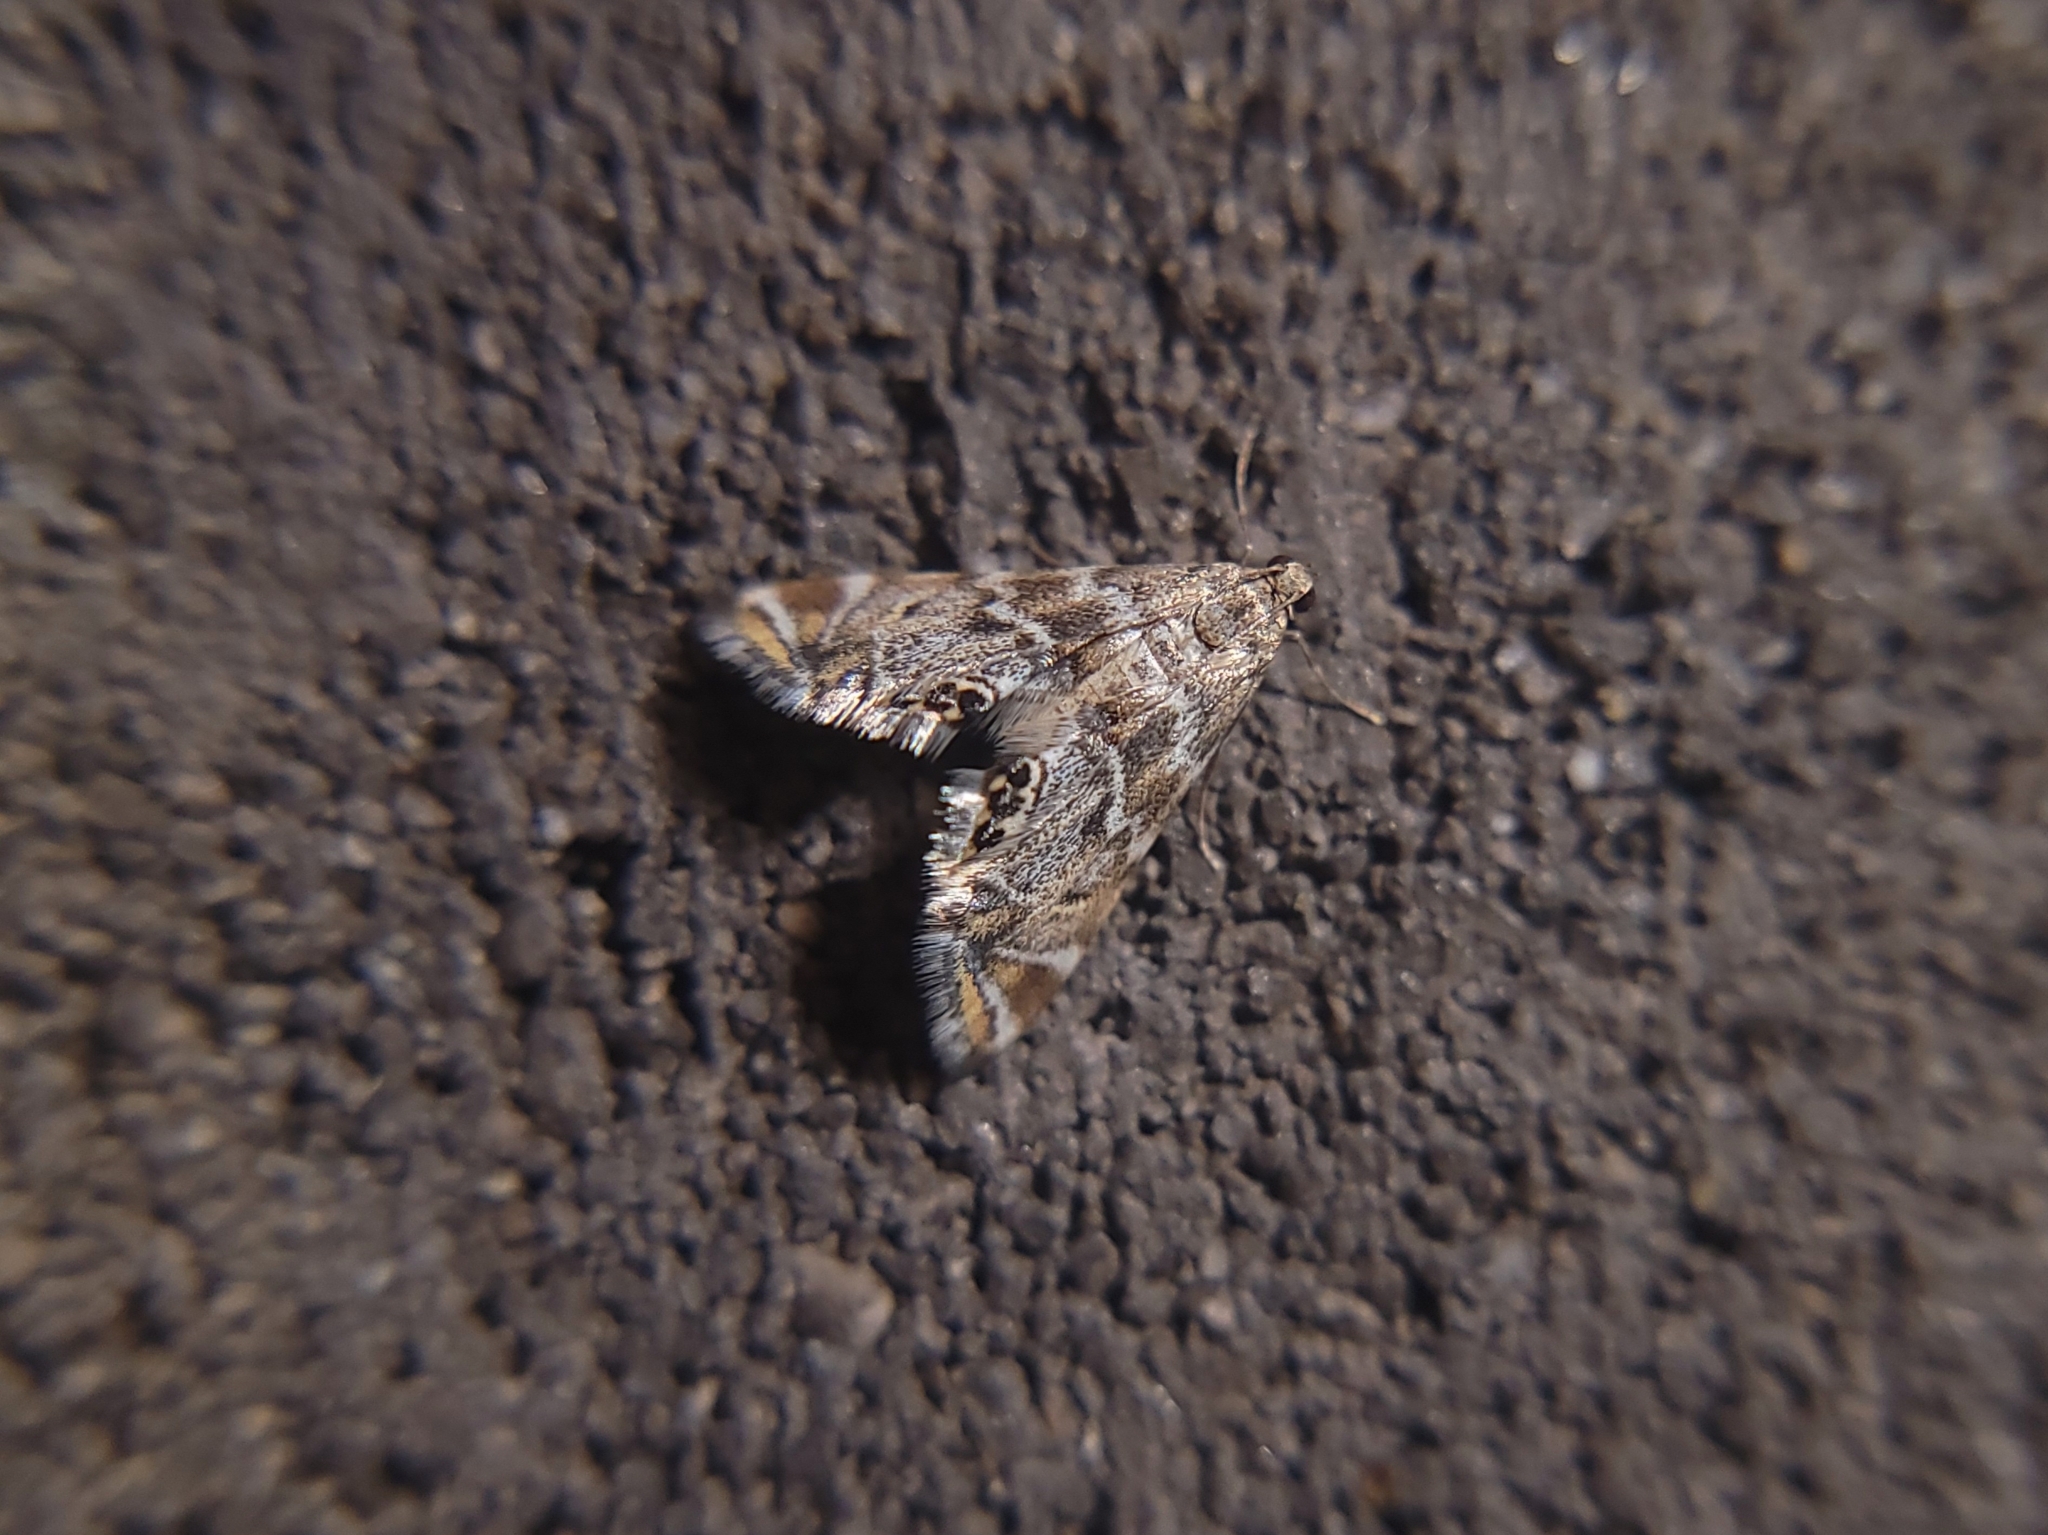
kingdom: Animalia
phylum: Arthropoda
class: Insecta
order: Lepidoptera
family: Crambidae
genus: Petrophila
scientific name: Petrophila confusalis
